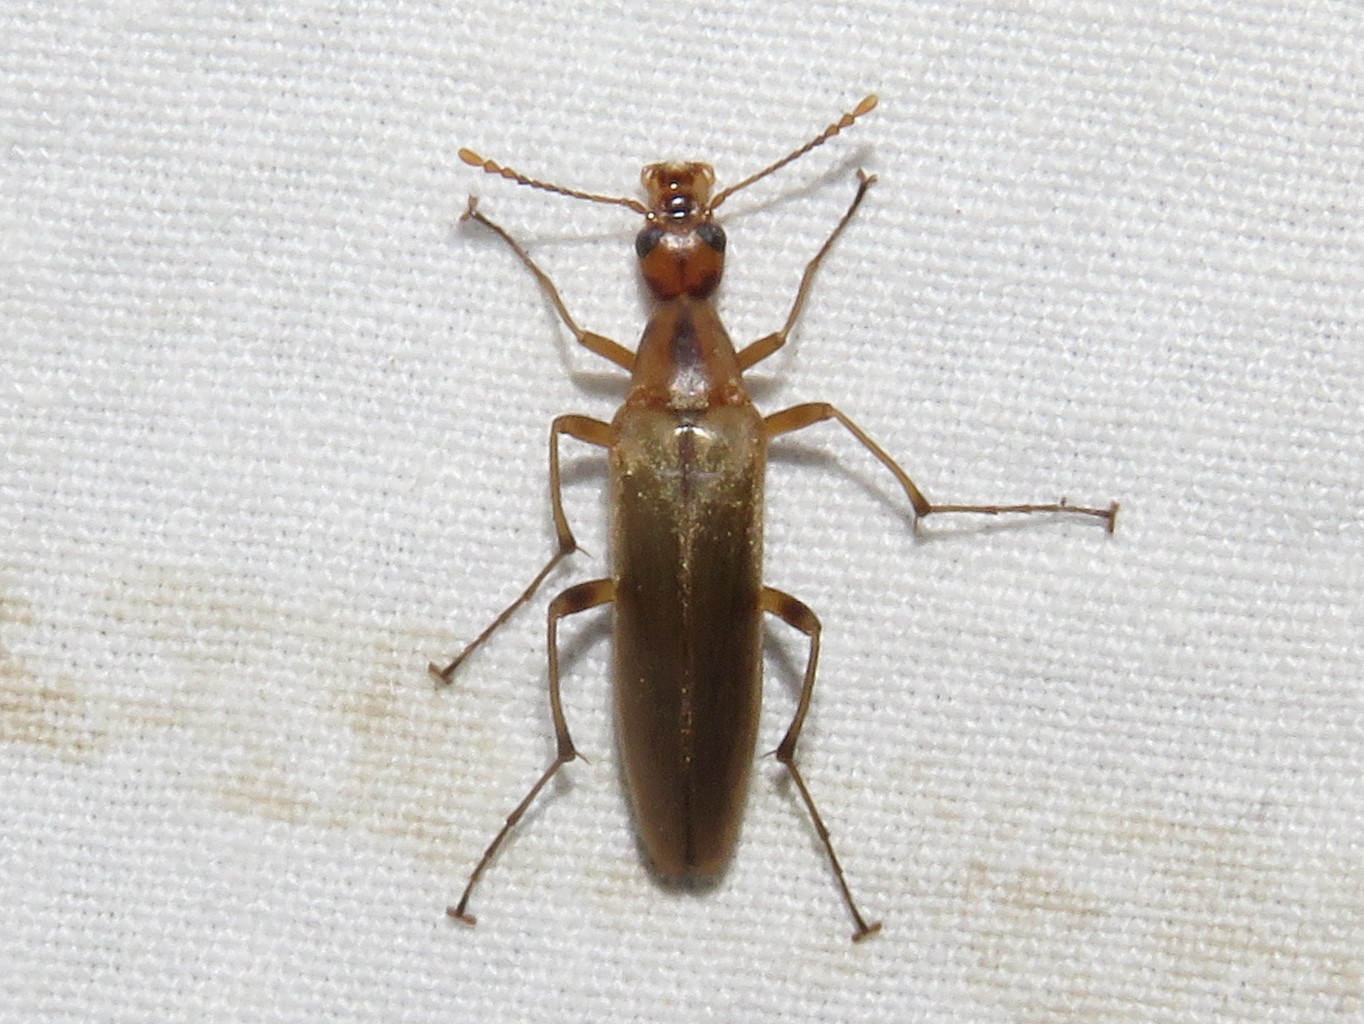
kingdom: Animalia
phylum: Arthropoda
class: Insecta
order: Coleoptera
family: Stenotrachelidae
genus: Cephaloon
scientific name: Cephaloon lepturides
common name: False leptura beetle
